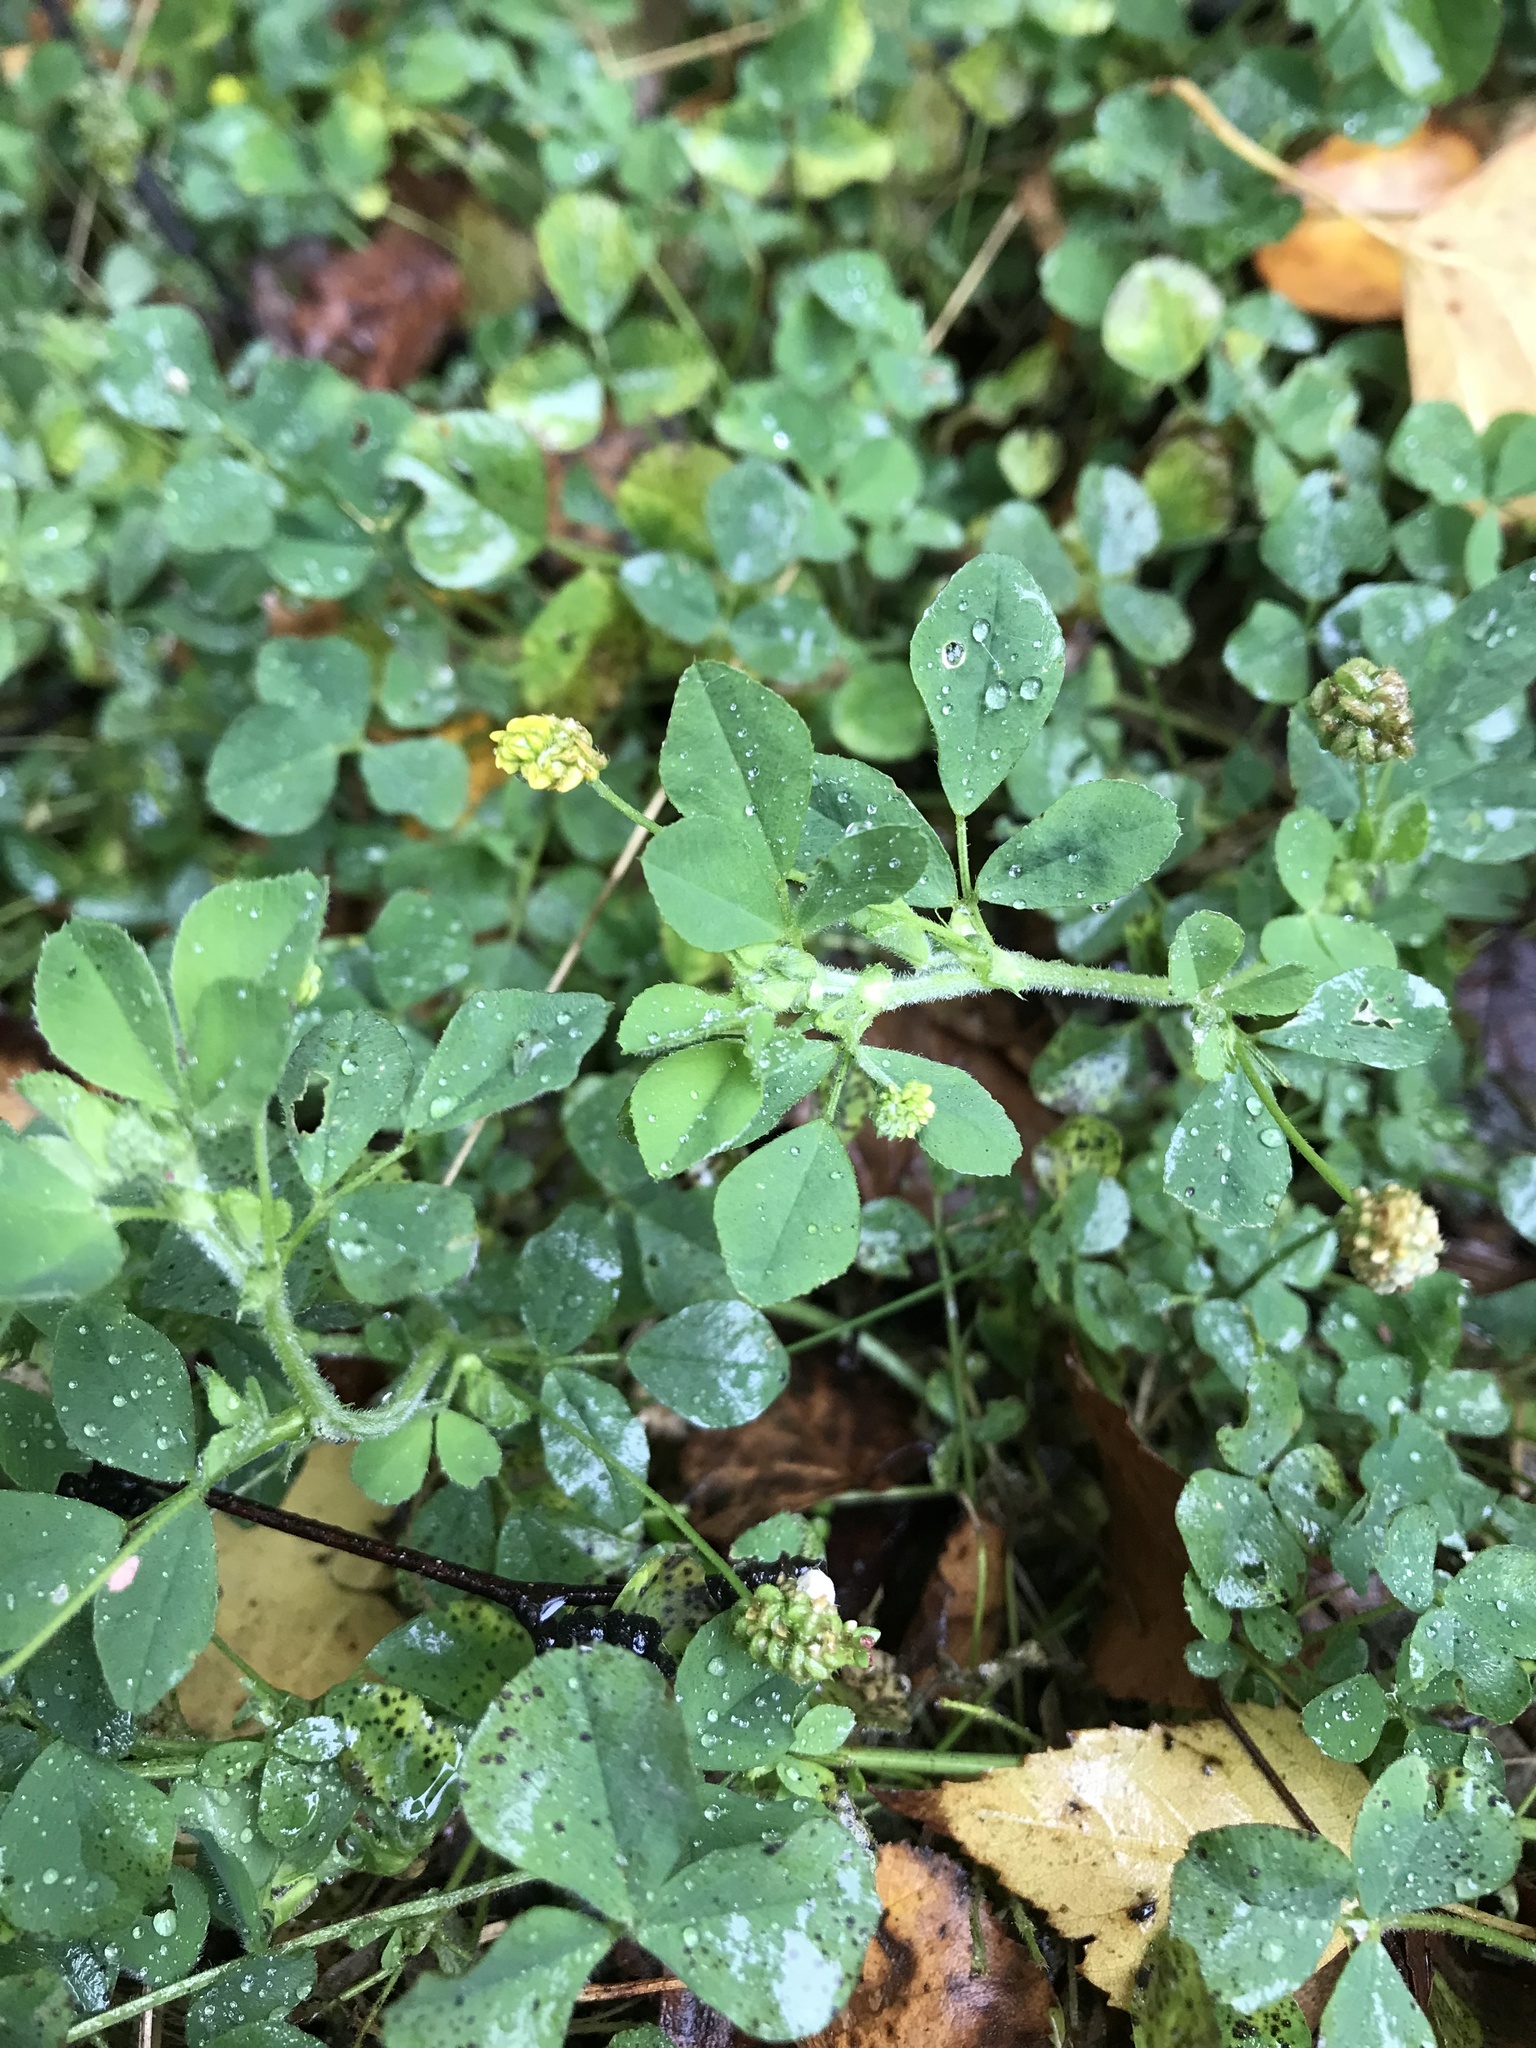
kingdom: Plantae
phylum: Tracheophyta
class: Magnoliopsida
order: Fabales
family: Fabaceae
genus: Medicago
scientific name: Medicago lupulina
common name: Black medick
